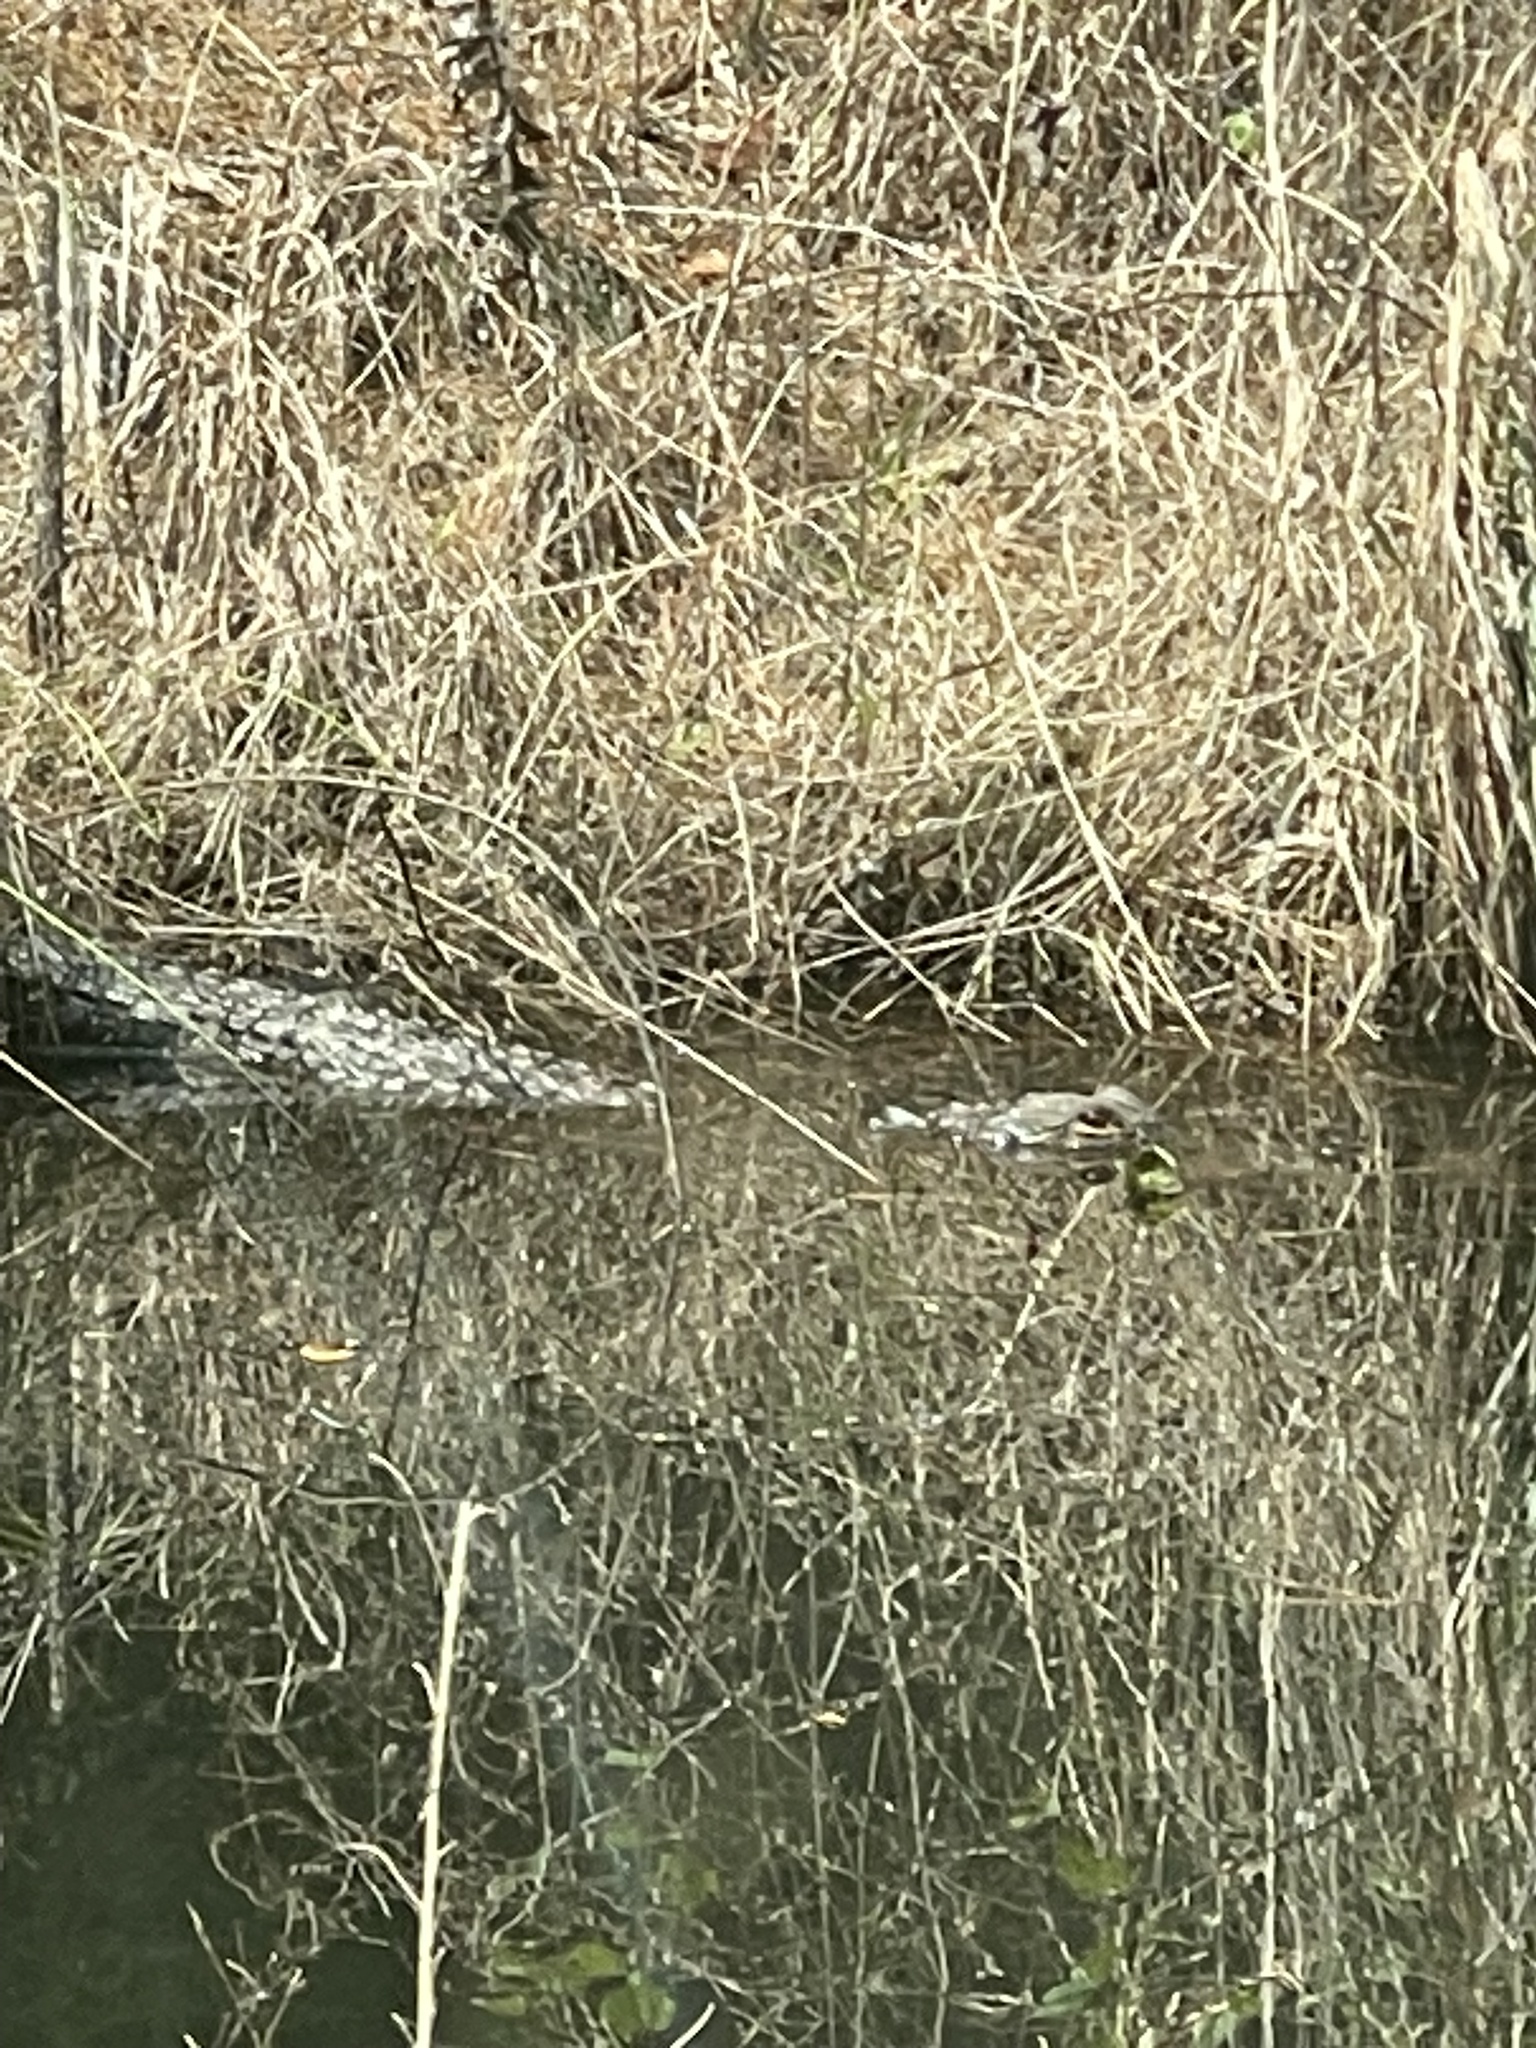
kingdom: Animalia
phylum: Chordata
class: Crocodylia
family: Alligatoridae
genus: Alligator
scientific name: Alligator mississippiensis
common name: American alligator
